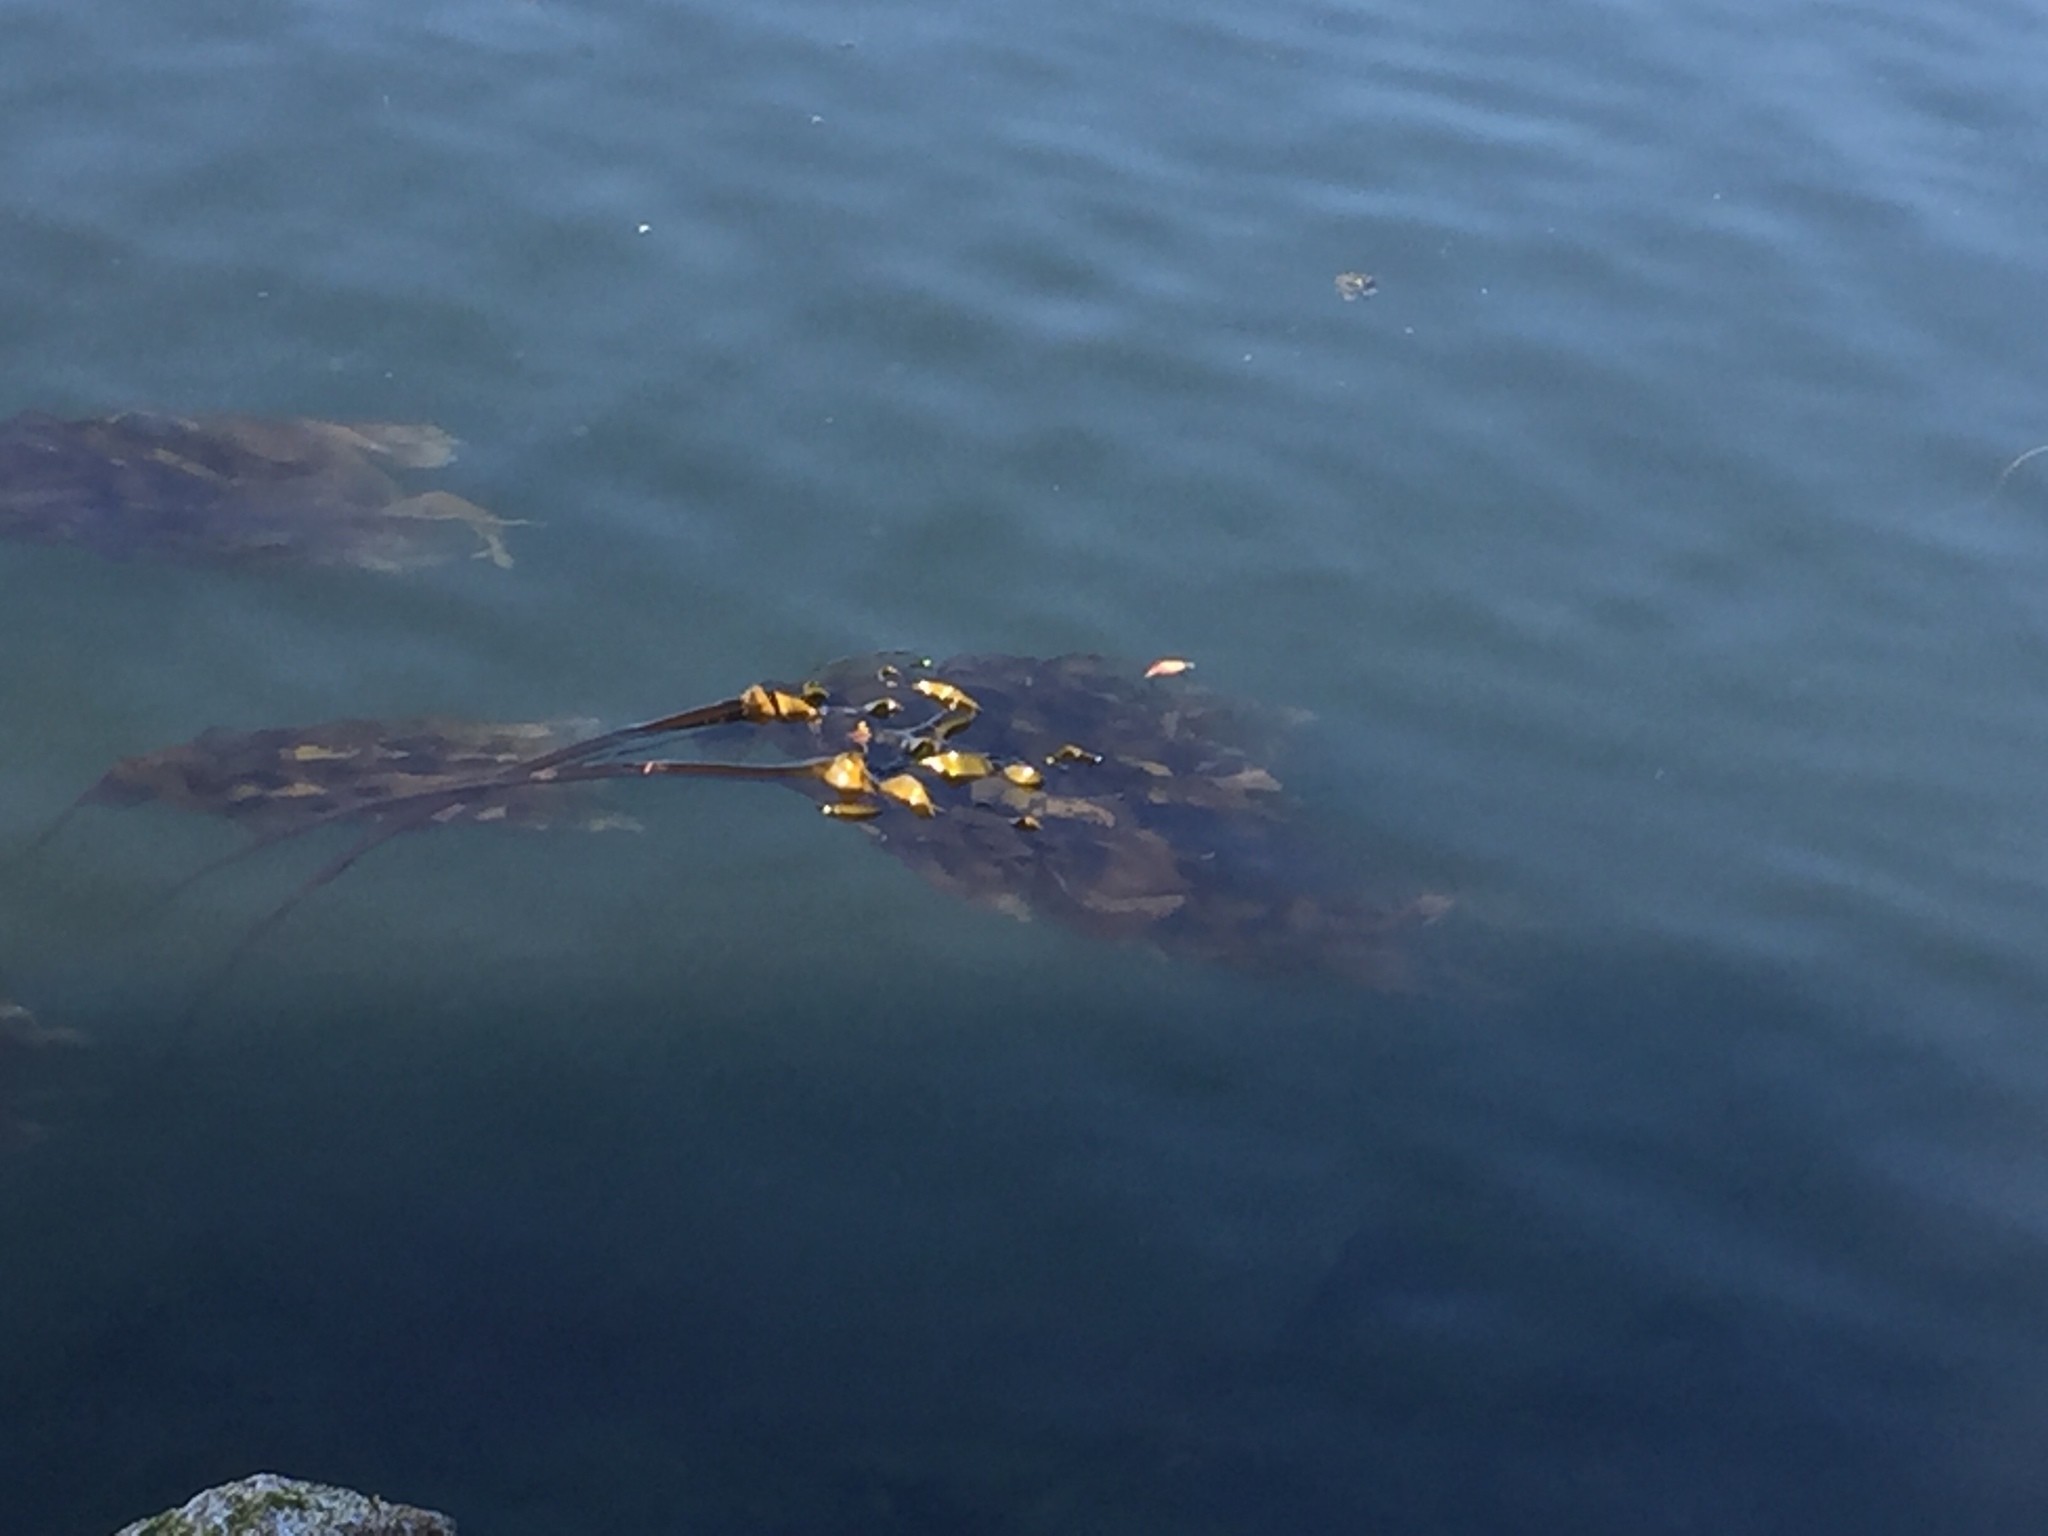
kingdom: Chromista
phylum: Ochrophyta
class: Phaeophyceae
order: Laminariales
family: Laminariaceae
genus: Nereocystis
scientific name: Nereocystis luetkeana
